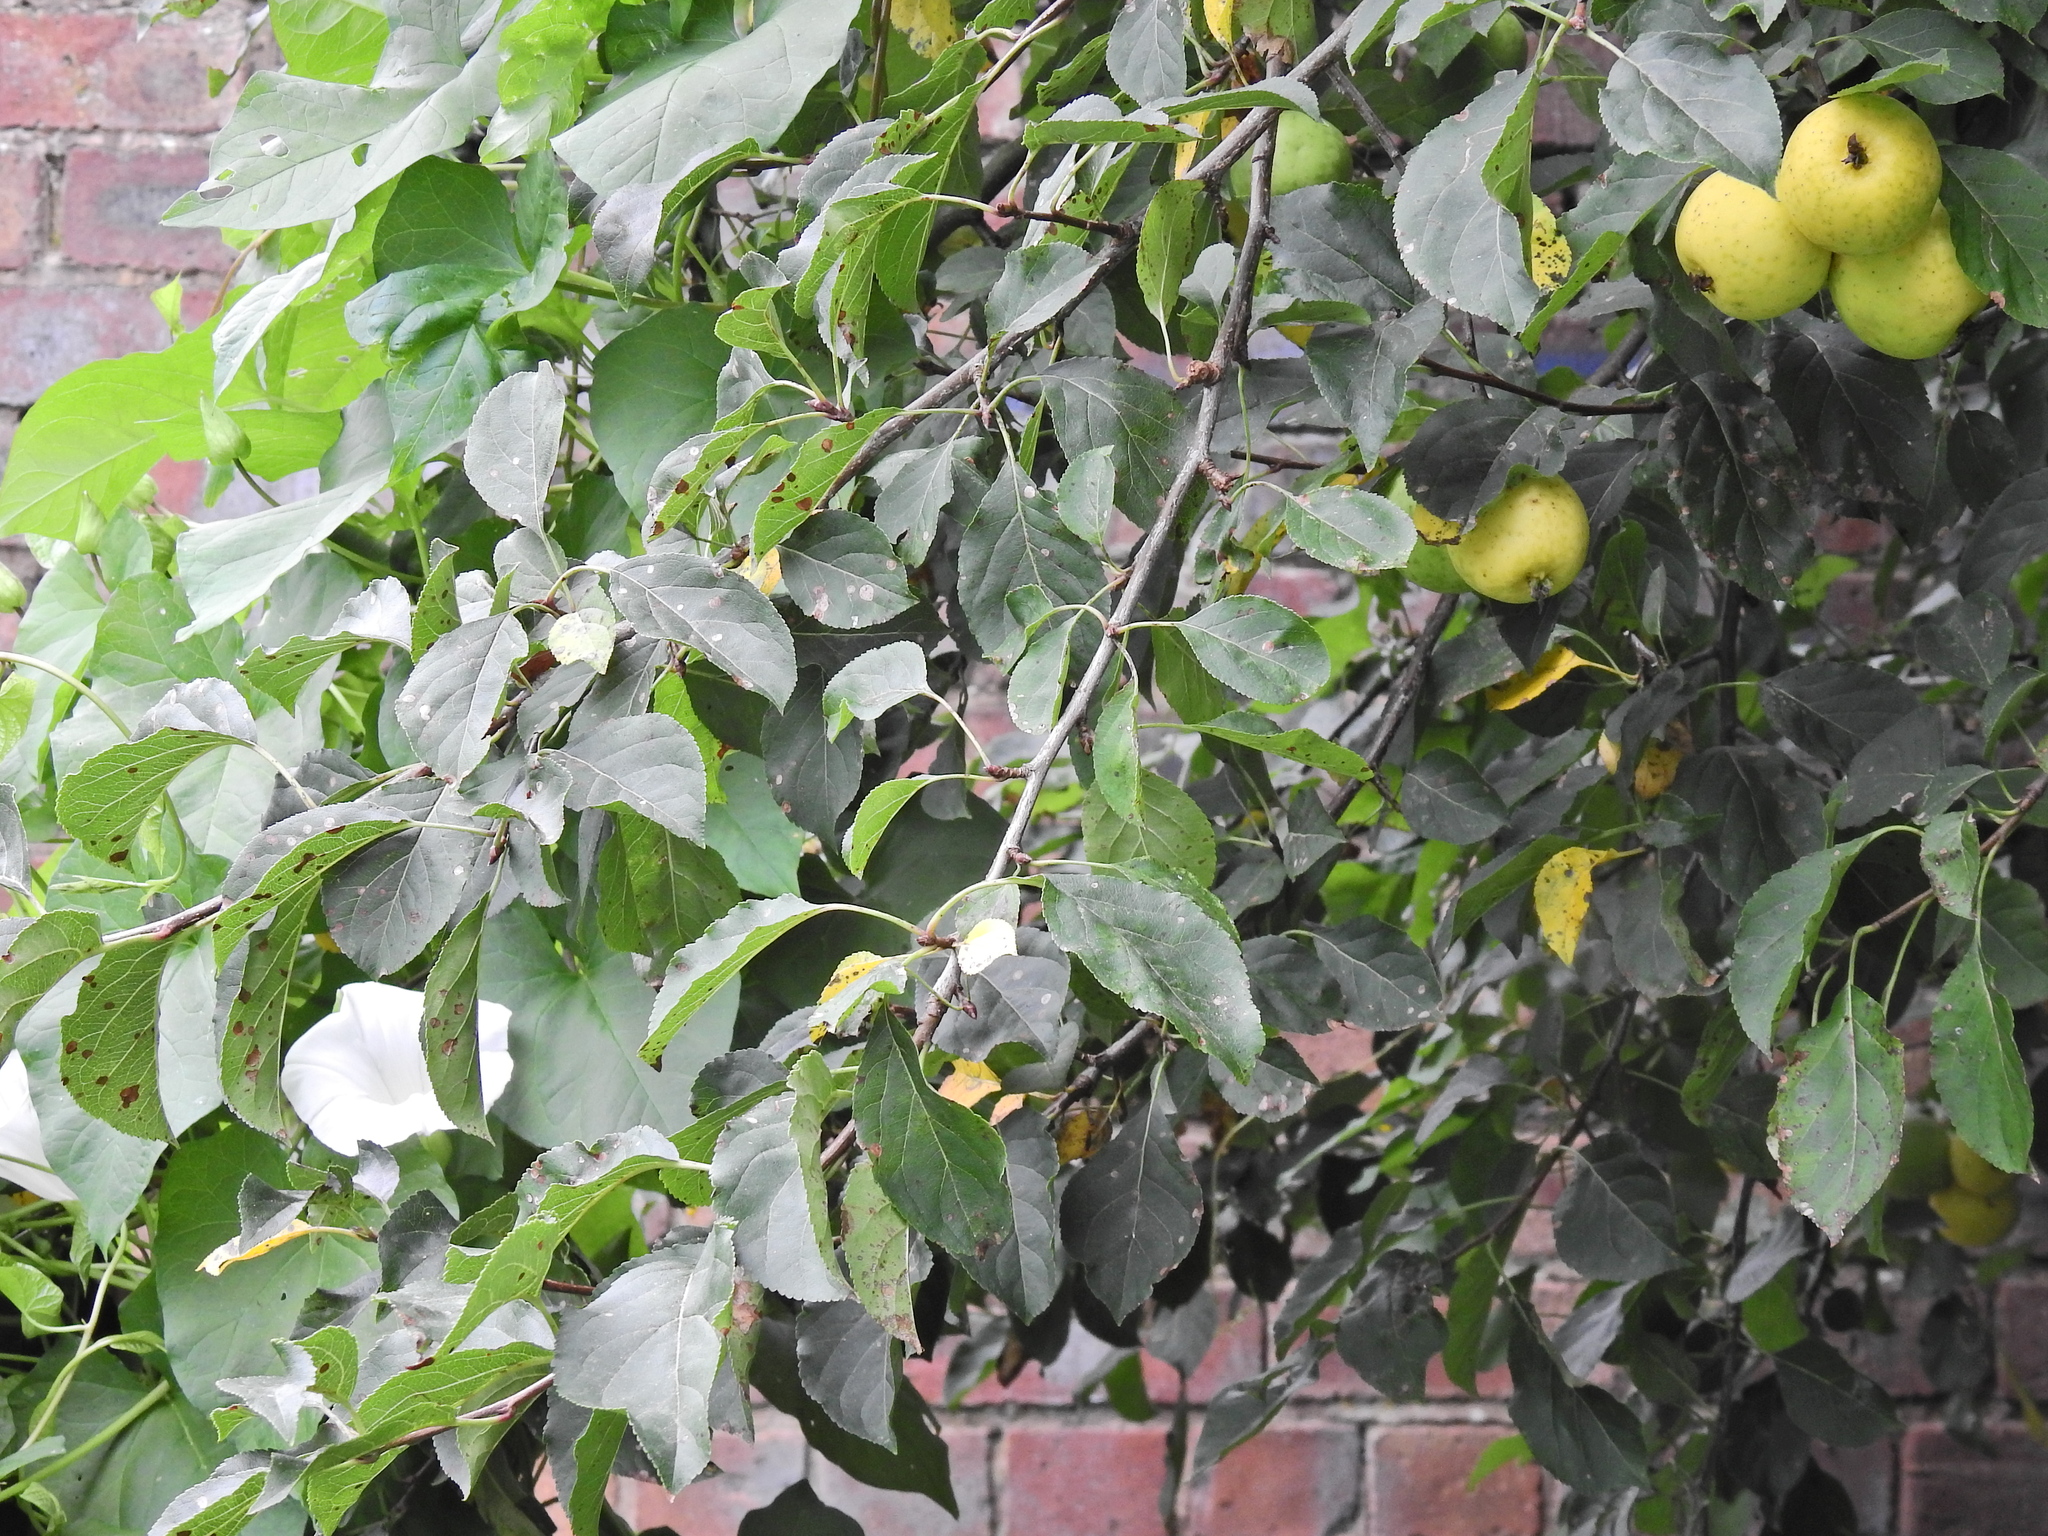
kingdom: Plantae
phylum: Tracheophyta
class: Magnoliopsida
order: Rosales
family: Rosaceae
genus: Malus
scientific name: Malus sylvestris
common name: Crab apple
